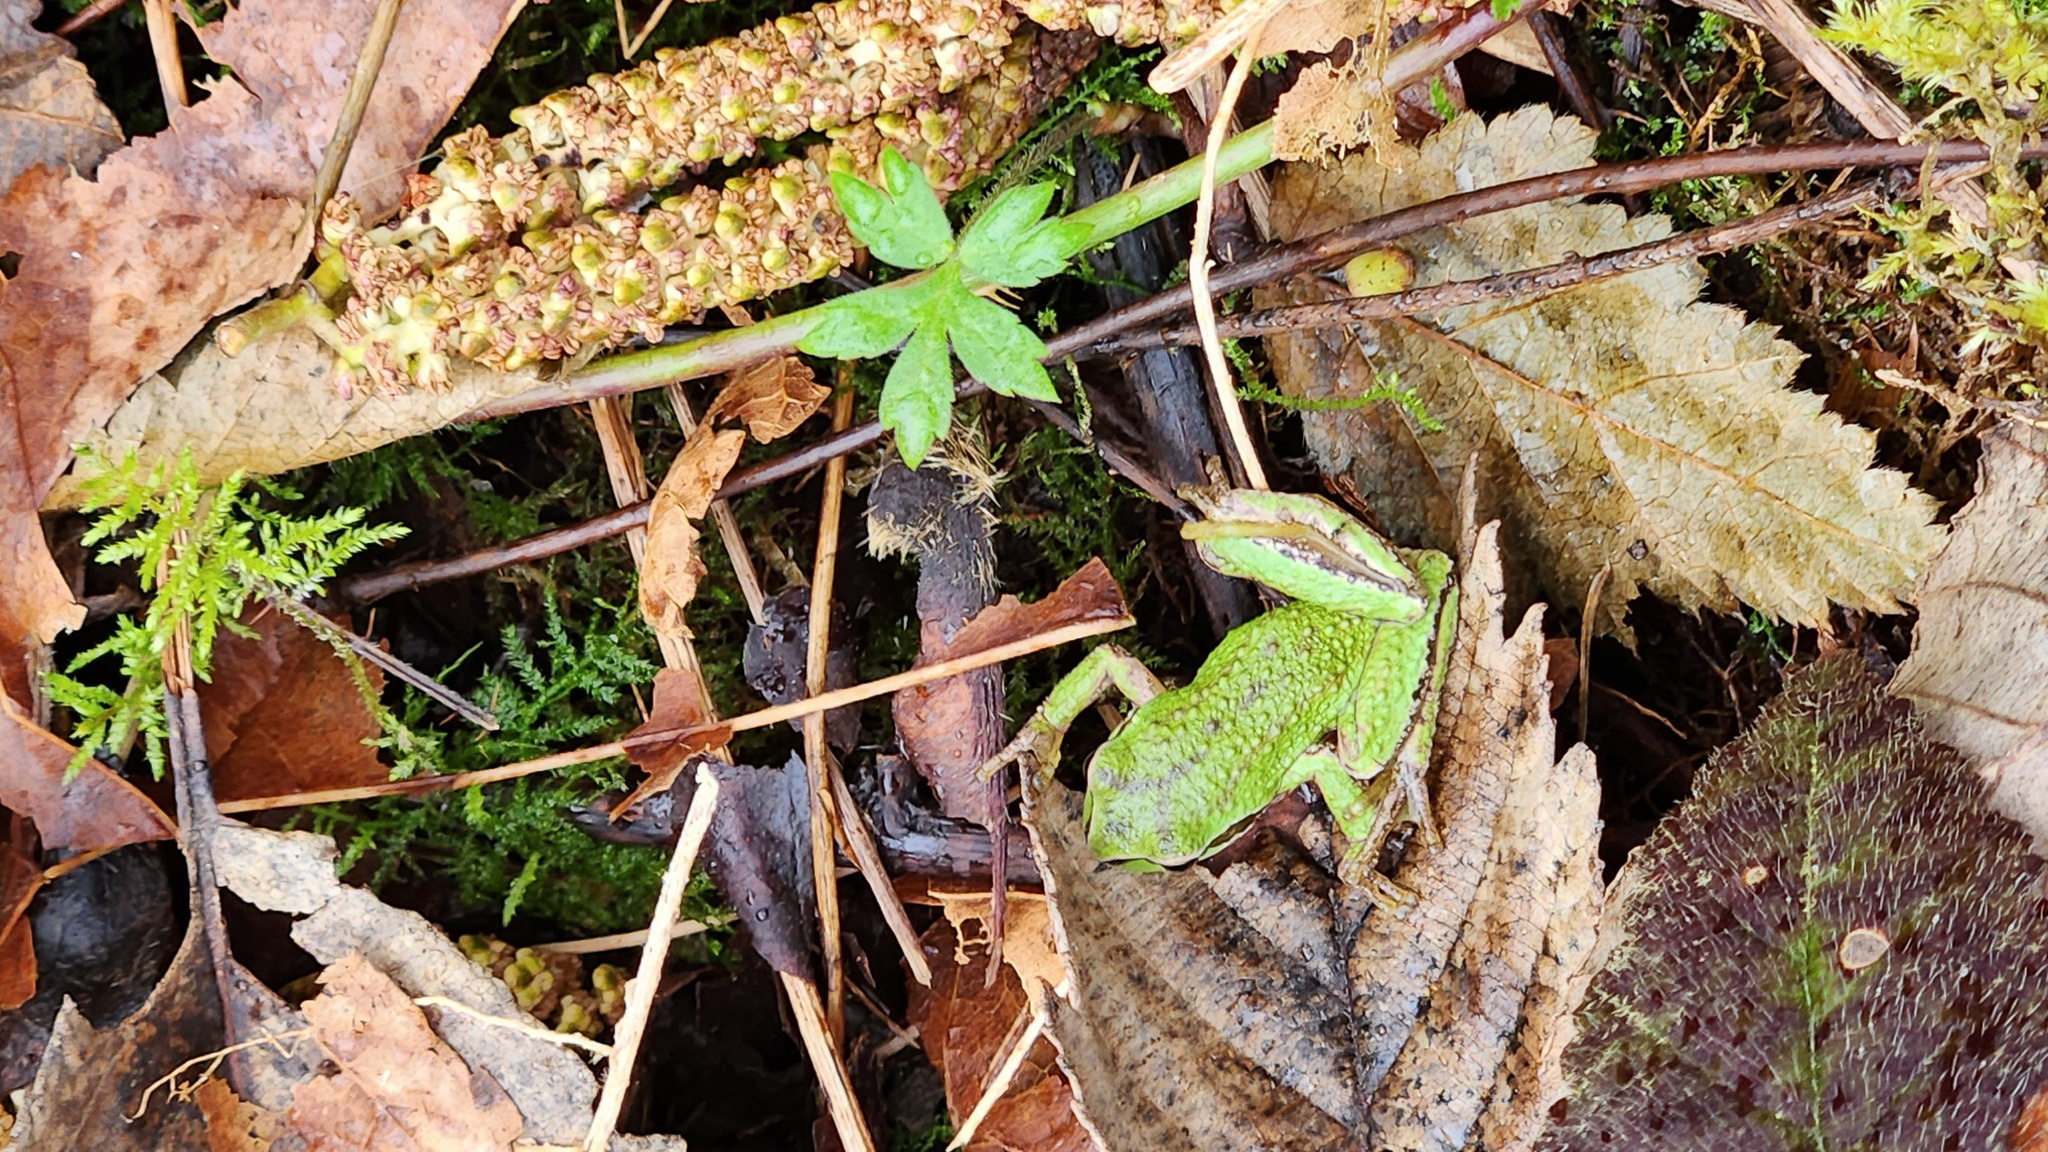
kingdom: Animalia
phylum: Chordata
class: Amphibia
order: Anura
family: Hylidae
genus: Pseudacris
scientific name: Pseudacris regilla
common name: Pacific chorus frog
